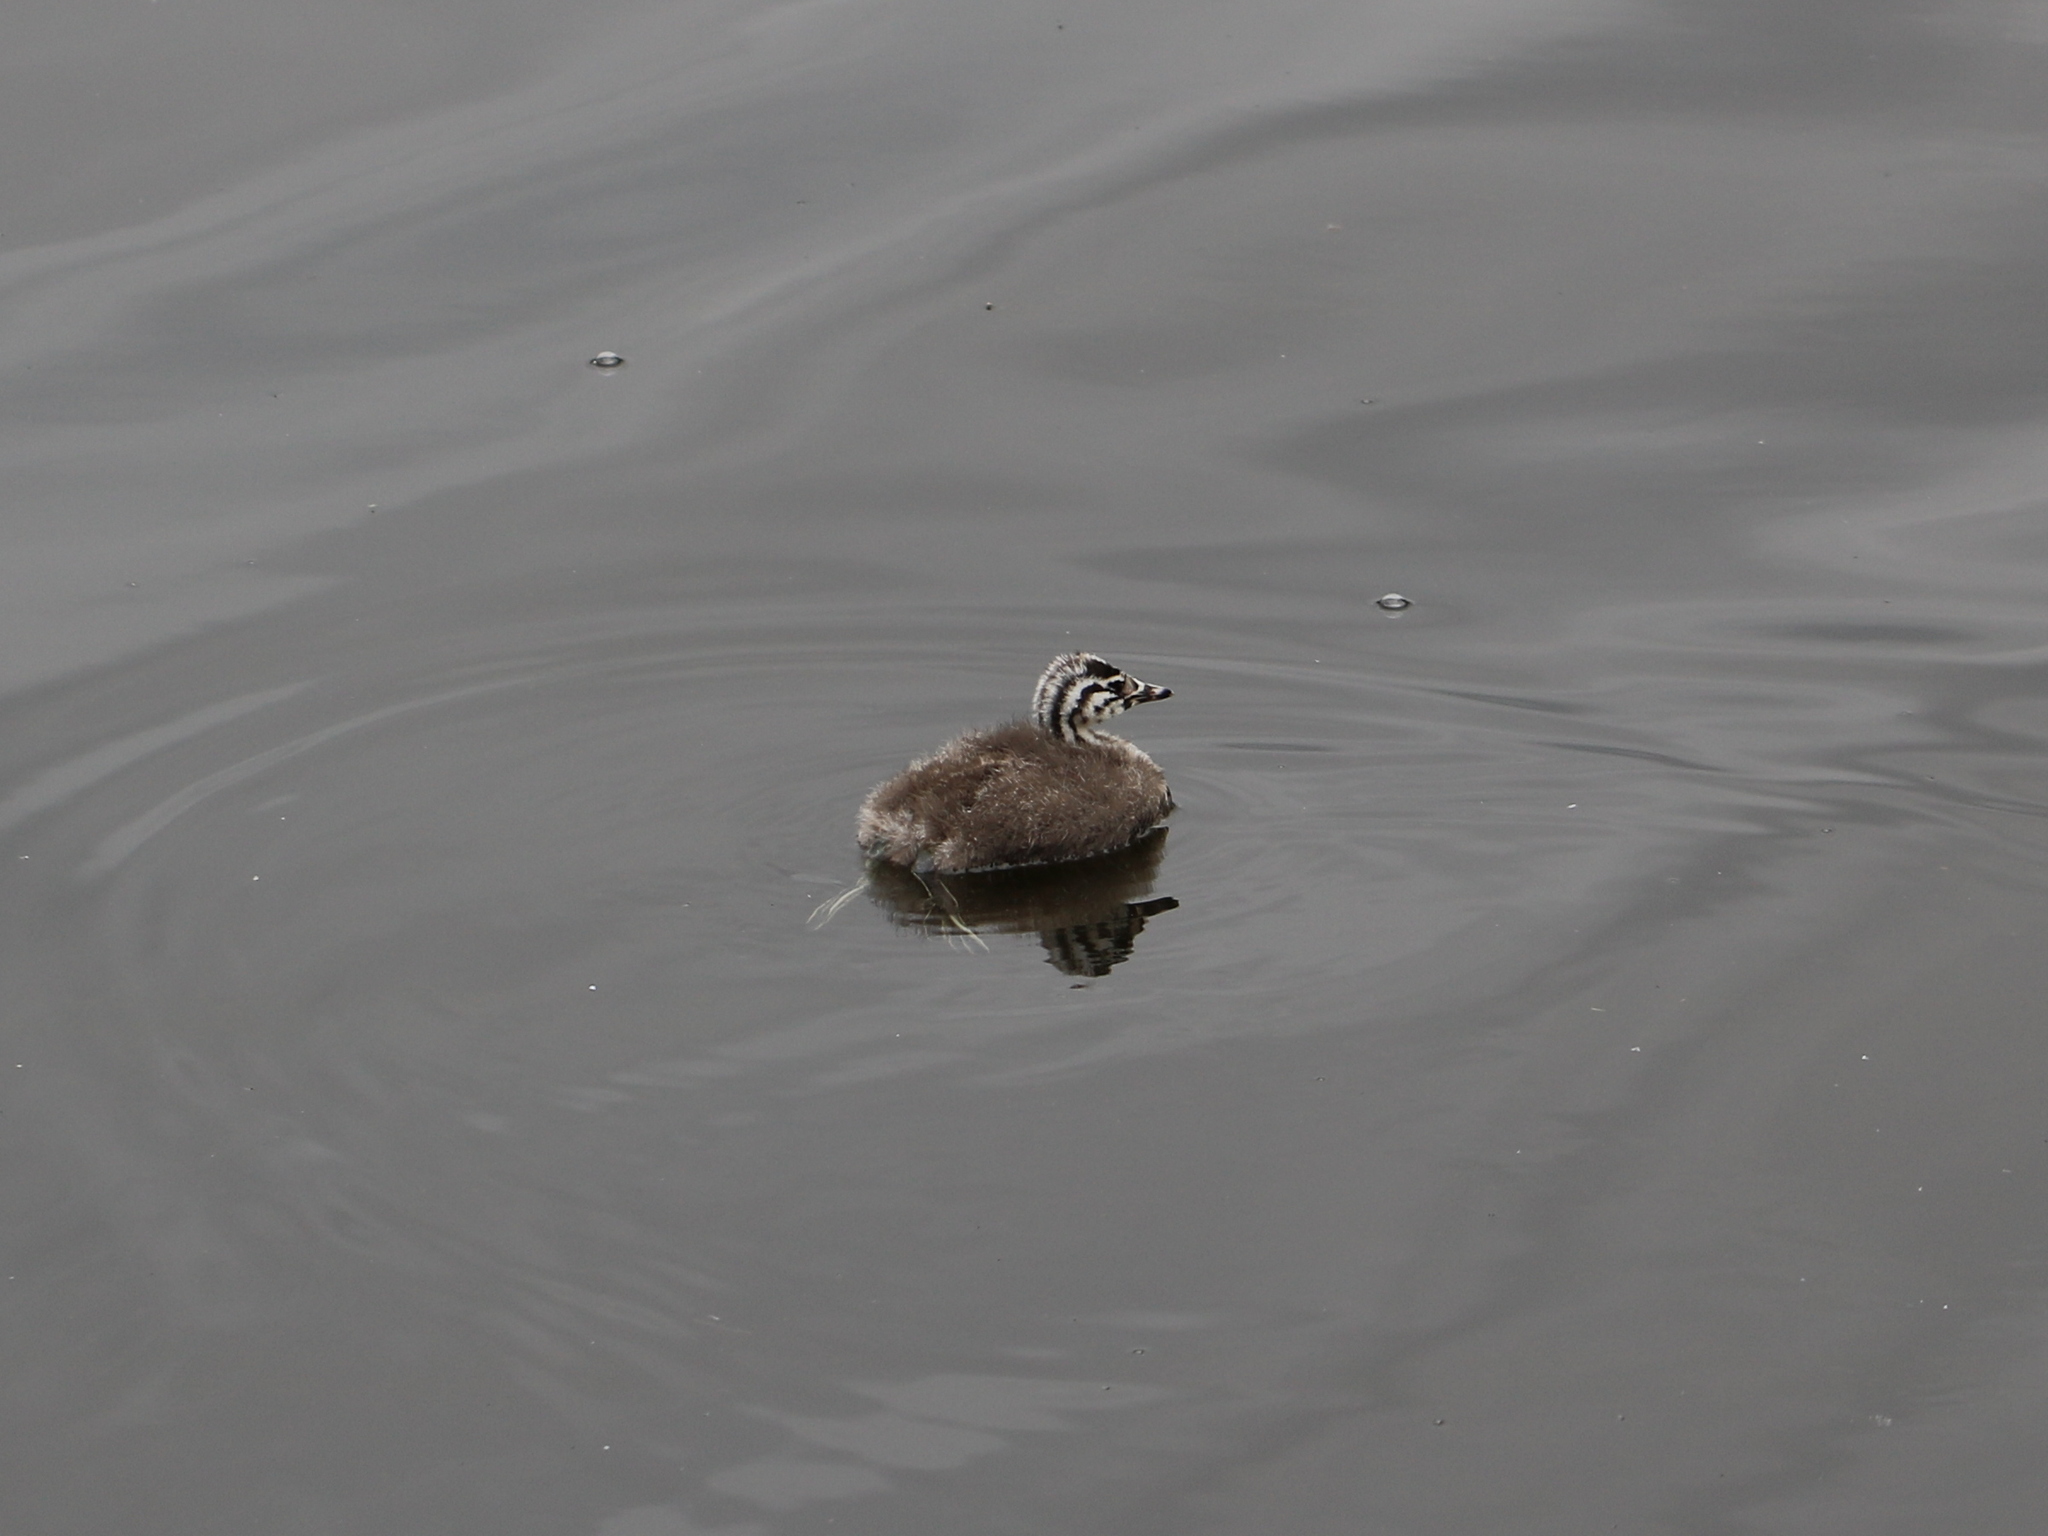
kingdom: Animalia
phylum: Chordata
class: Aves
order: Podicipediformes
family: Podicipedidae
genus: Podiceps
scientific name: Podiceps cristatus
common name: Great crested grebe
